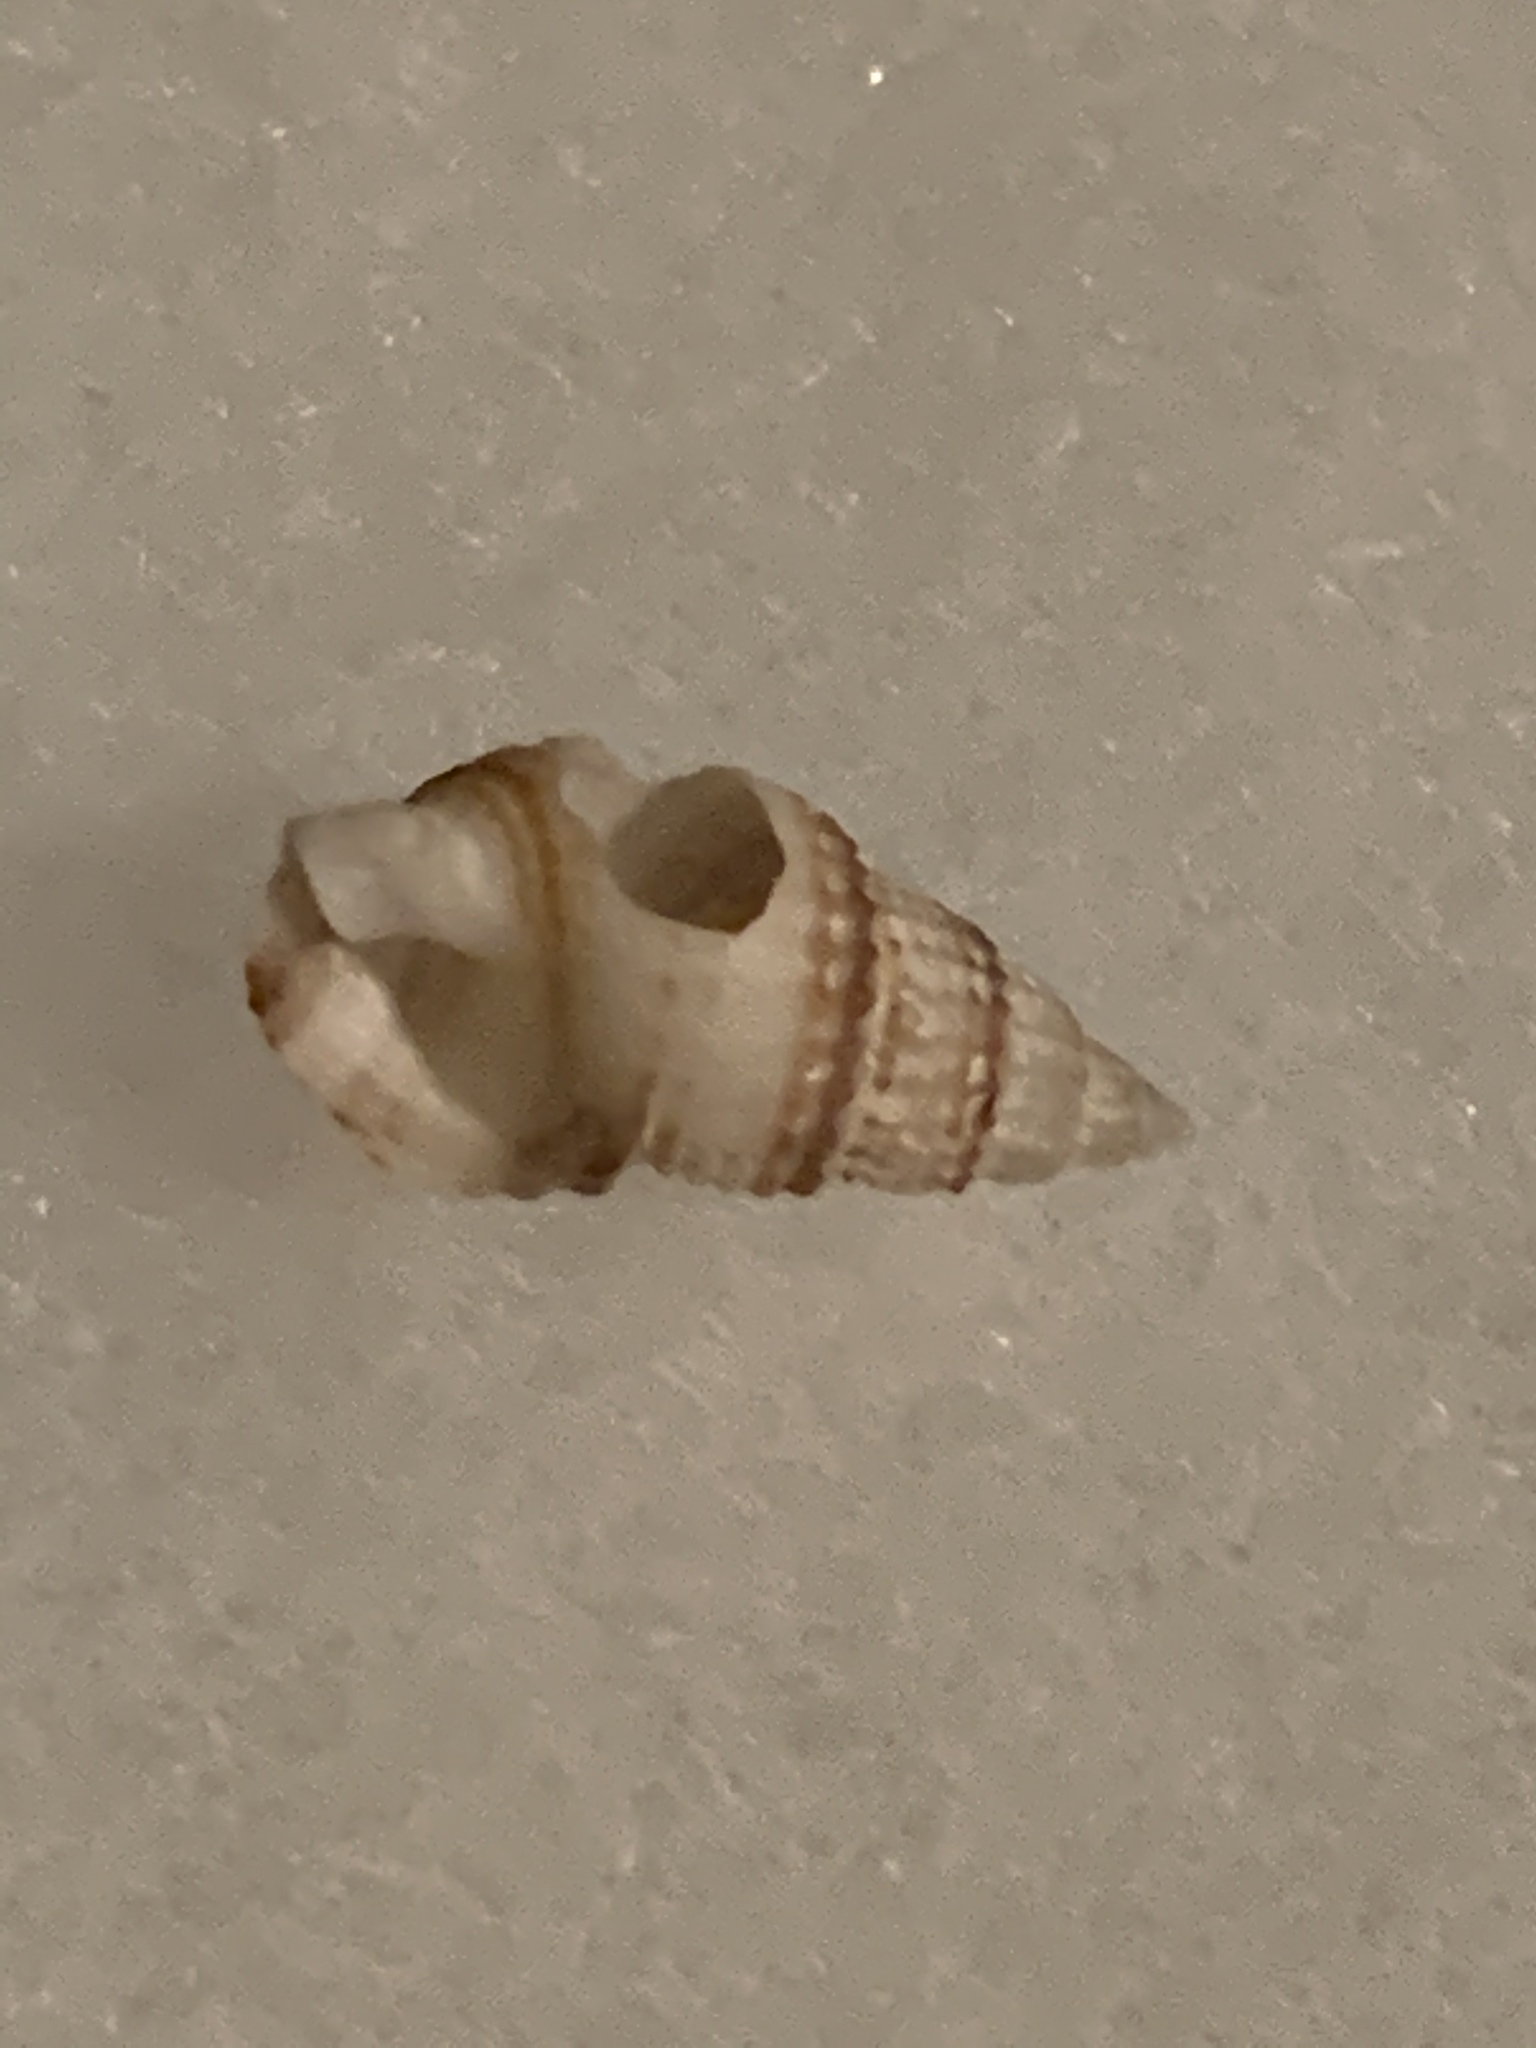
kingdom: Animalia
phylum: Mollusca
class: Gastropoda
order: Neogastropoda
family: Nassariidae
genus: Ilyanassa
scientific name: Ilyanassa trivittata
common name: Three-line mudsnail
